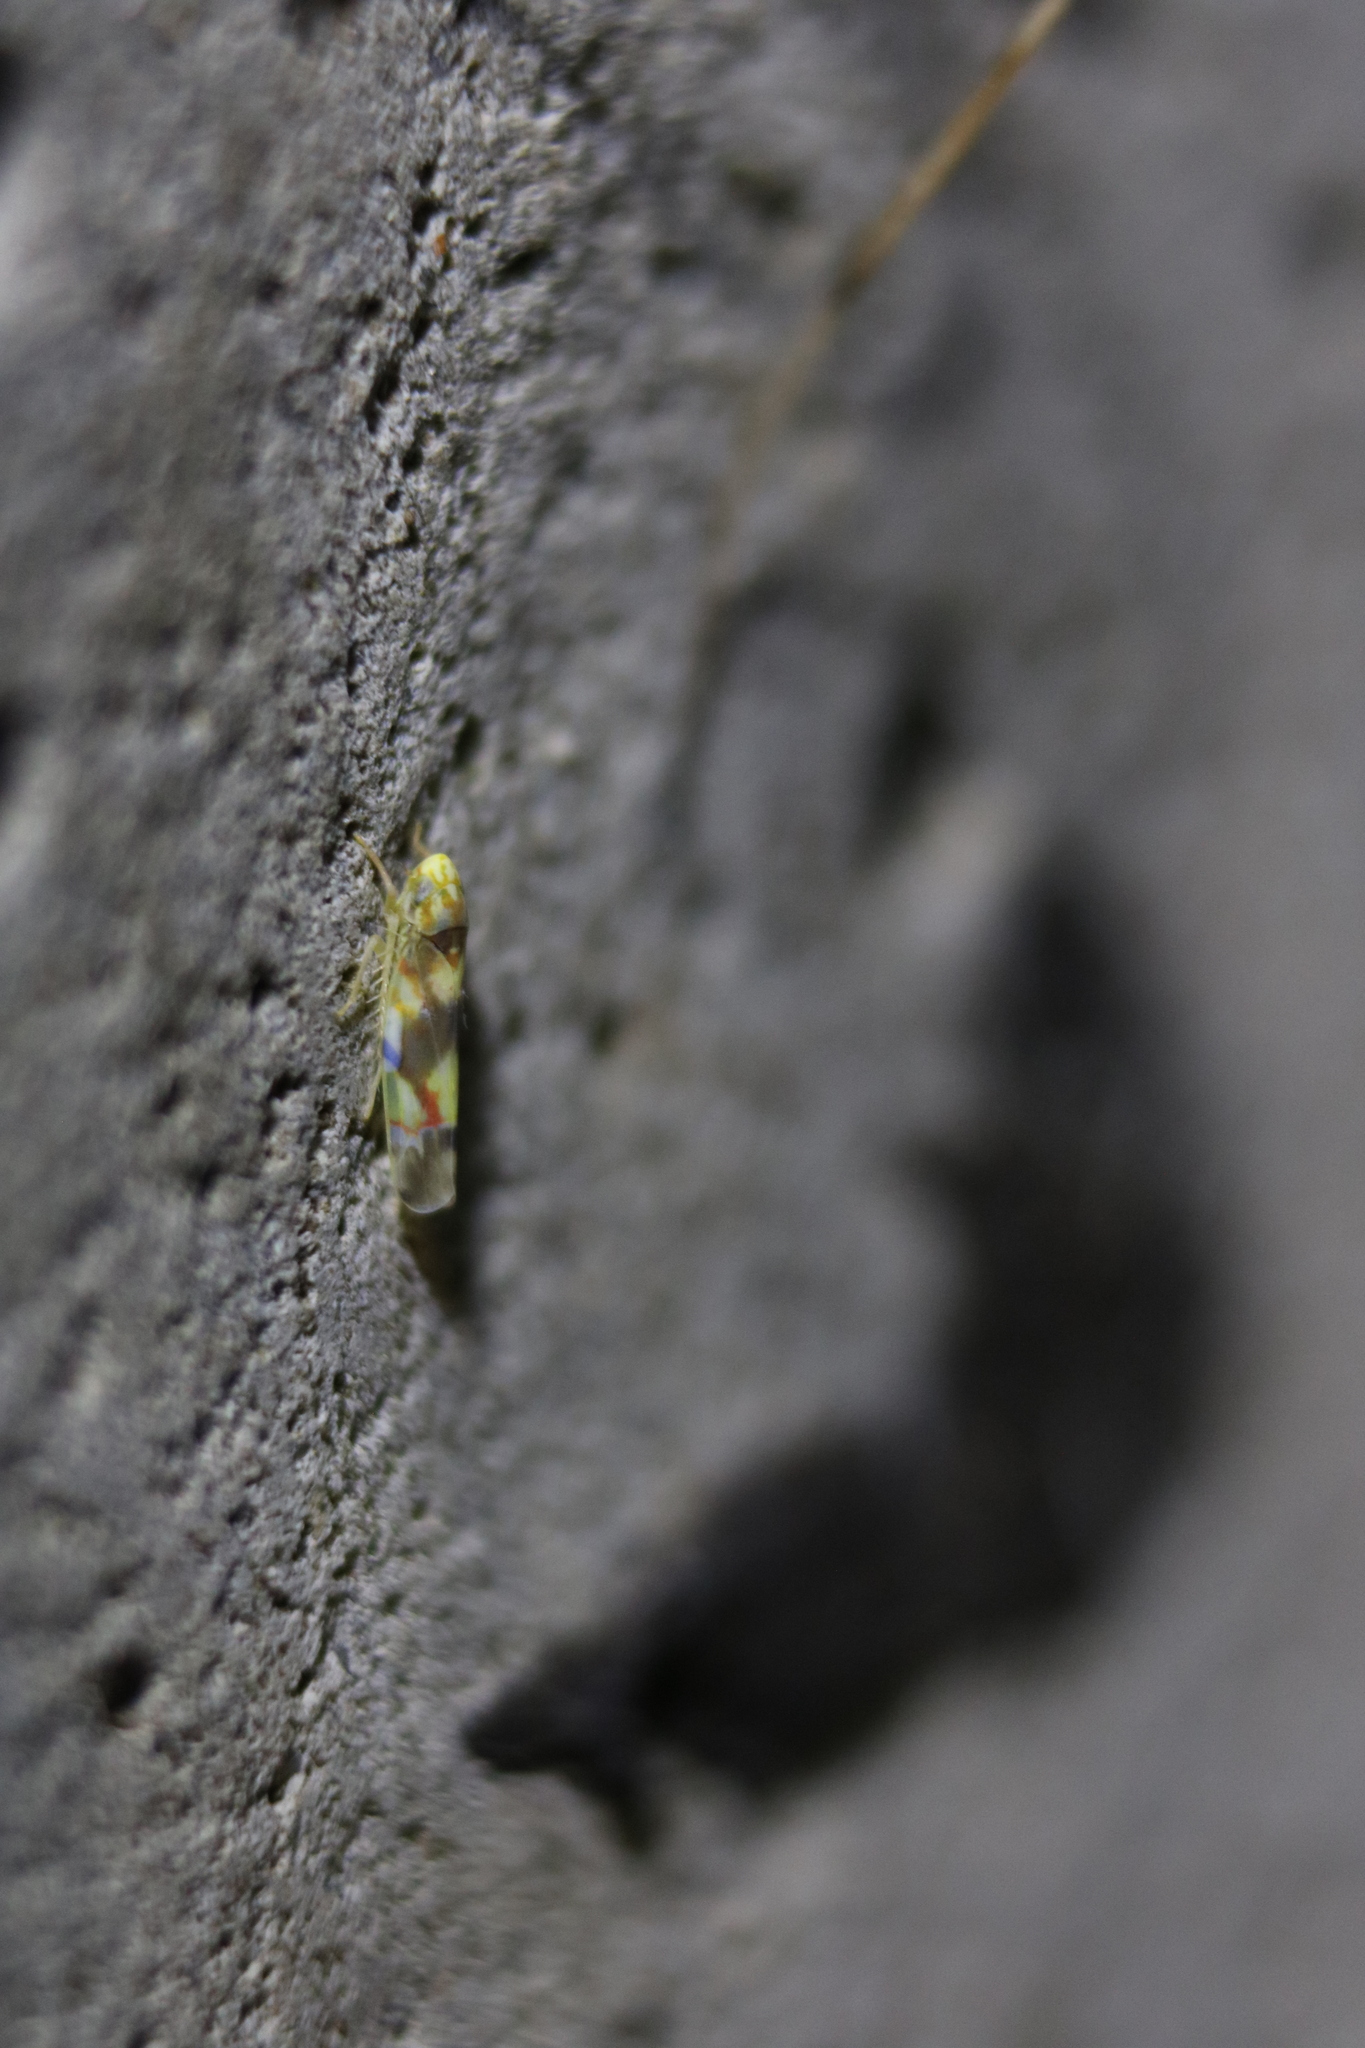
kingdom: Animalia
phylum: Arthropoda
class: Insecta
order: Hemiptera
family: Cicadellidae
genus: Erythroneura
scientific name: Erythroneura elegans
